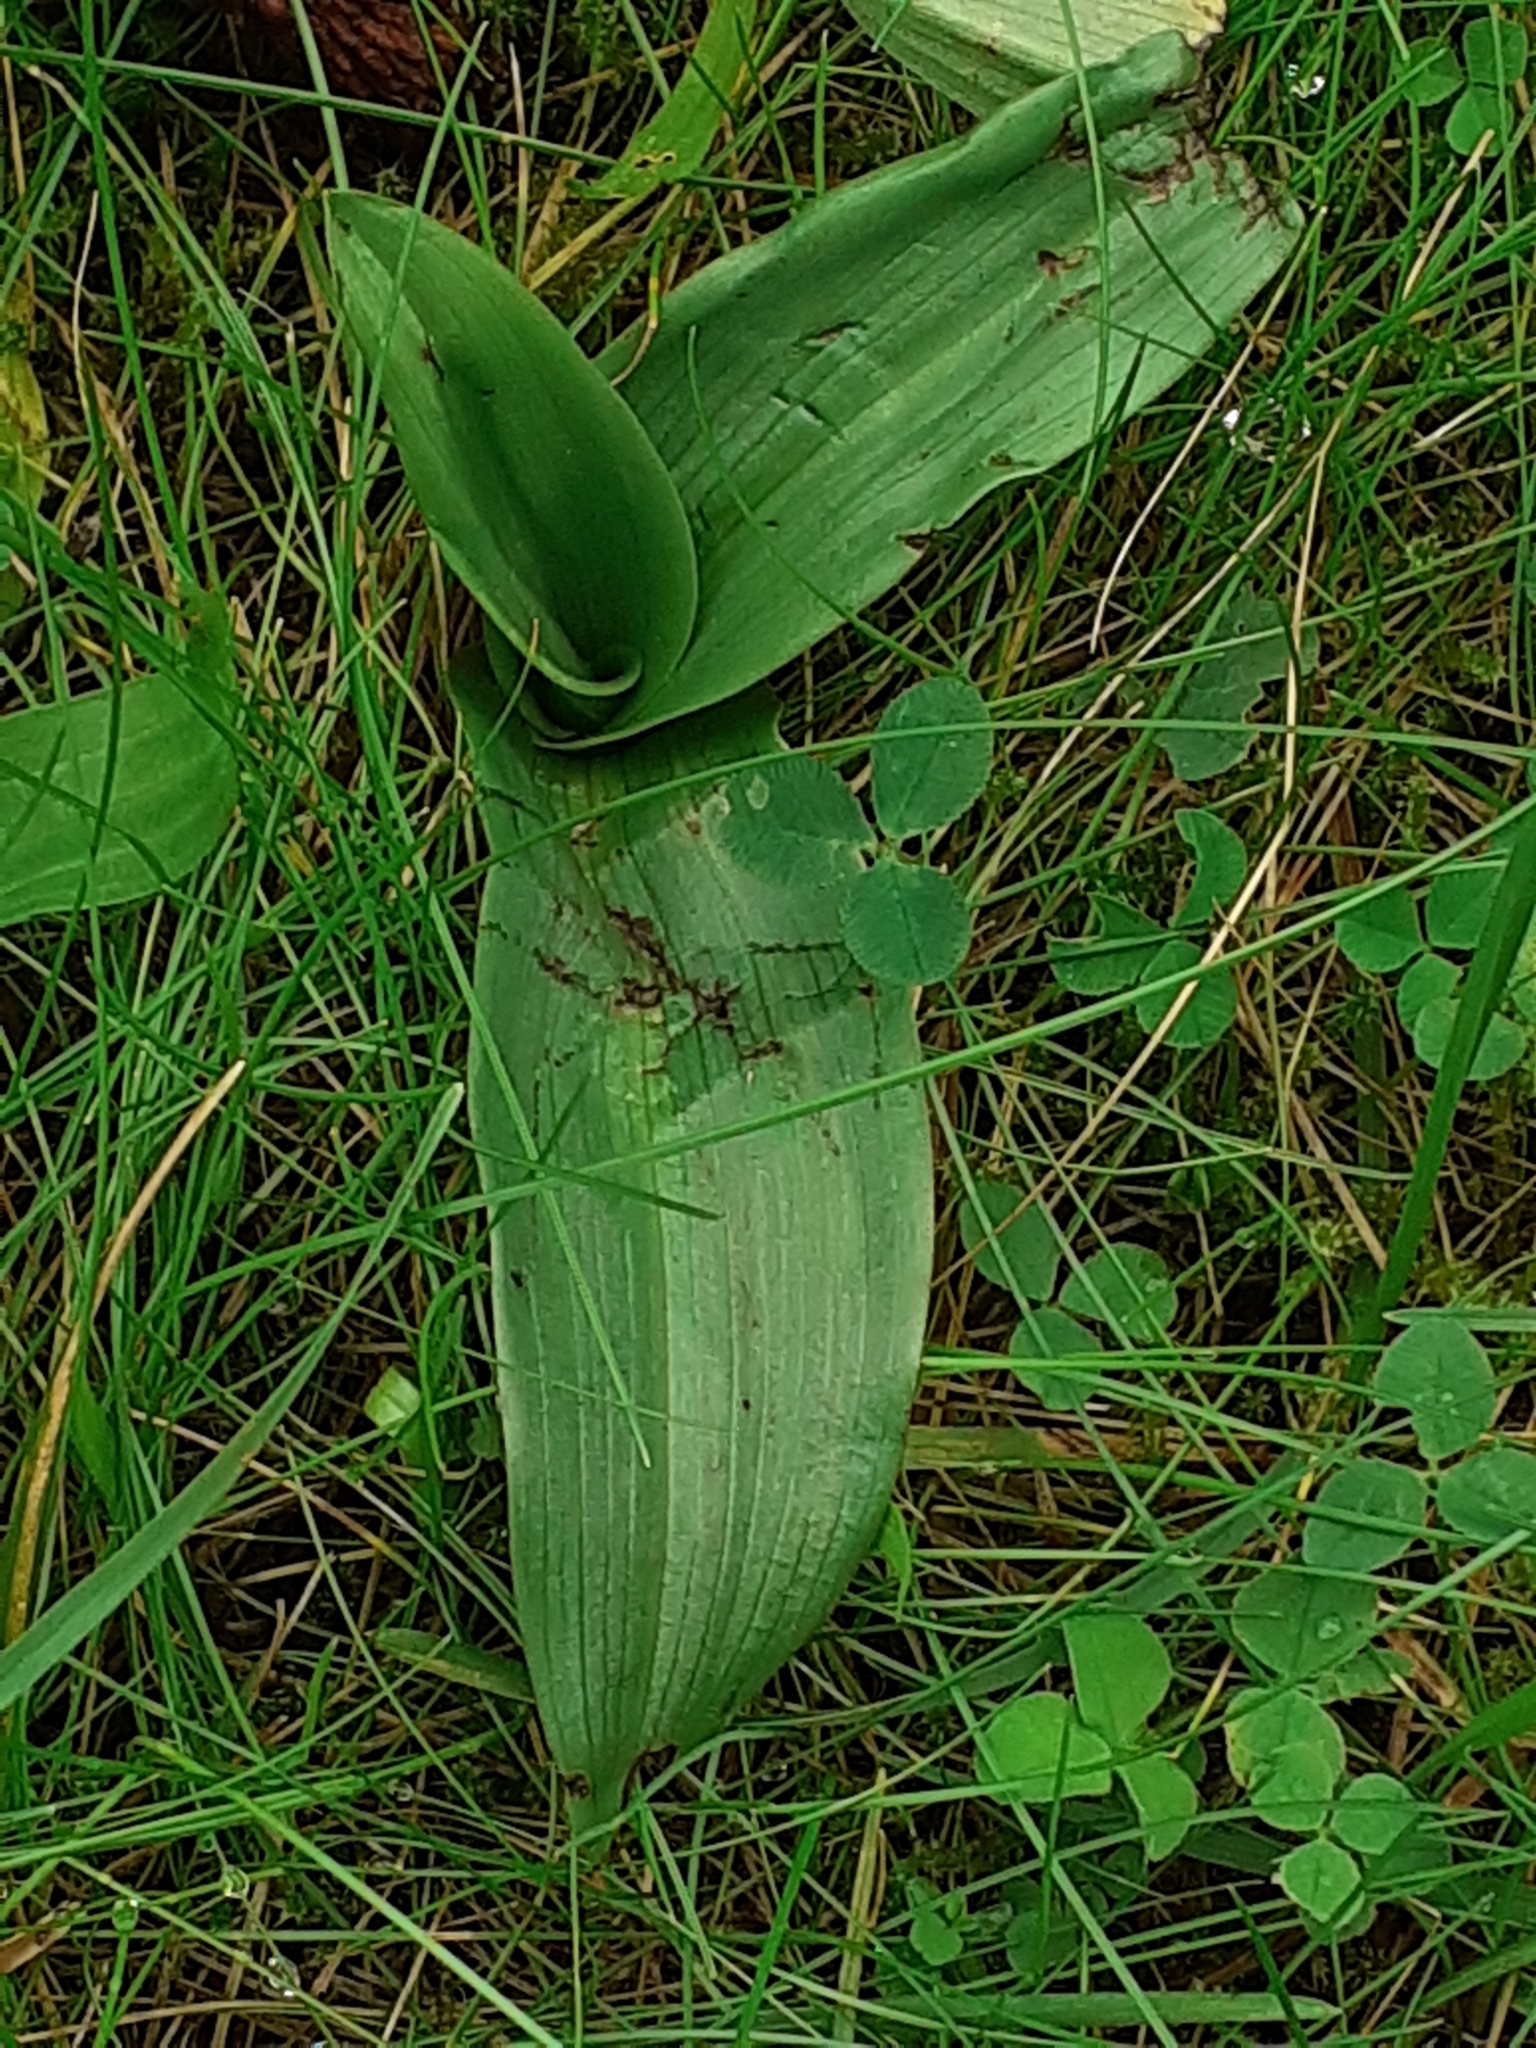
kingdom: Plantae
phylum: Tracheophyta
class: Liliopsida
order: Asparagales
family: Orchidaceae
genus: Ophrys
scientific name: Ophrys apifera
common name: Bee orchid
